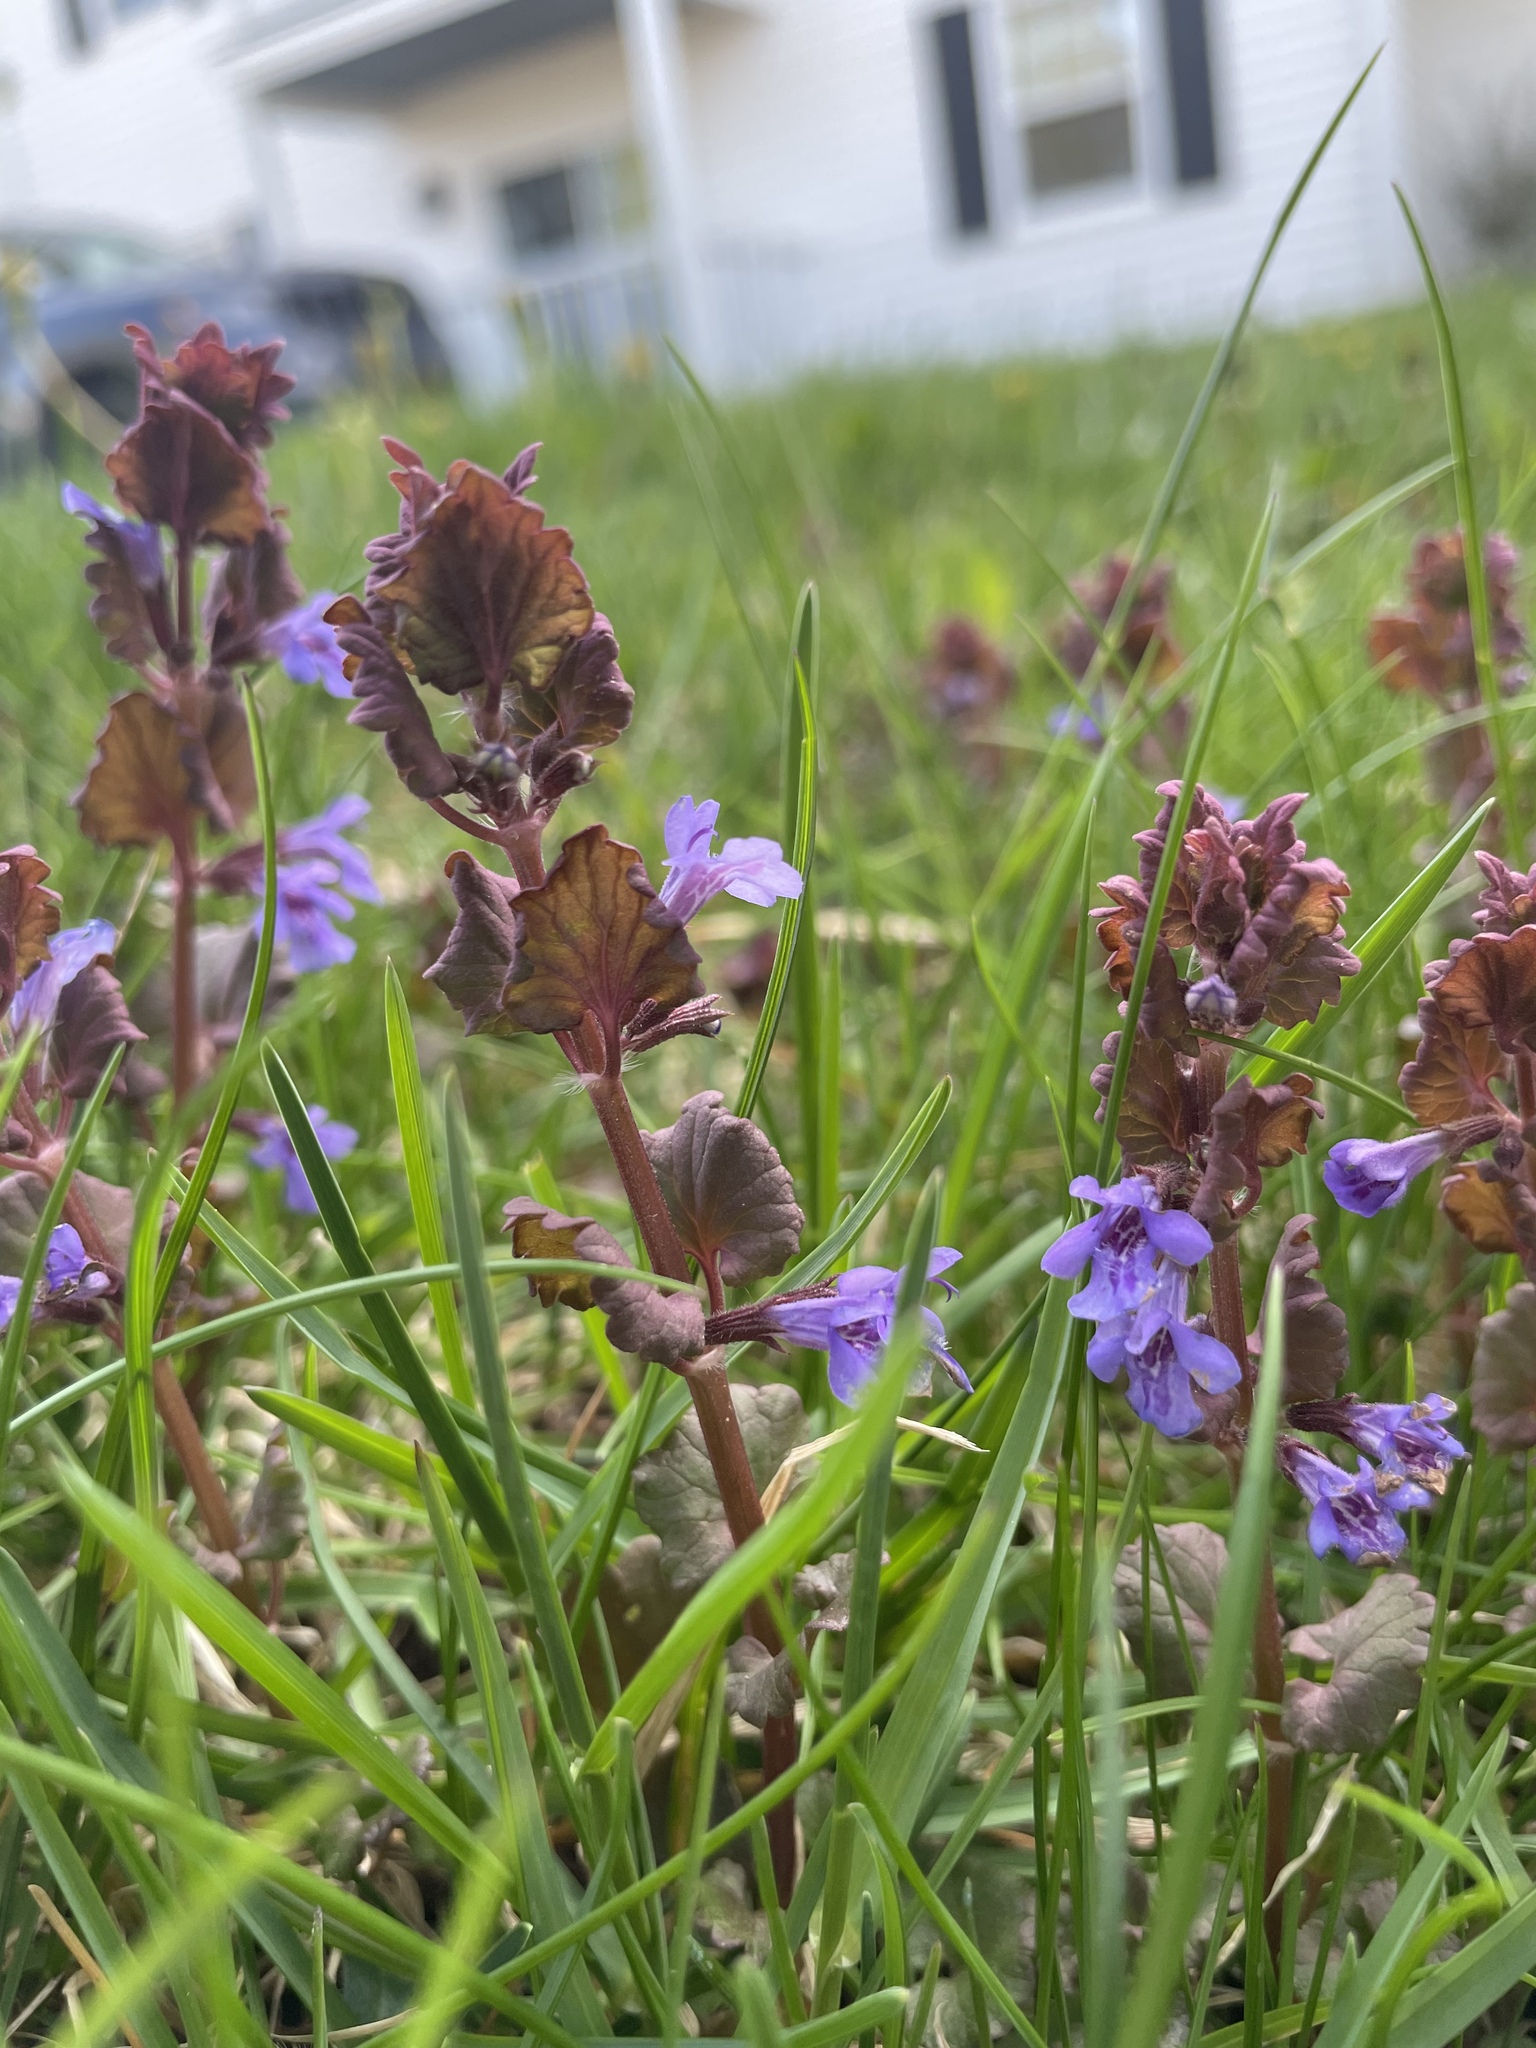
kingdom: Plantae
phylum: Tracheophyta
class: Magnoliopsida
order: Lamiales
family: Lamiaceae
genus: Glechoma
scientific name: Glechoma hederacea
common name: Ground ivy
